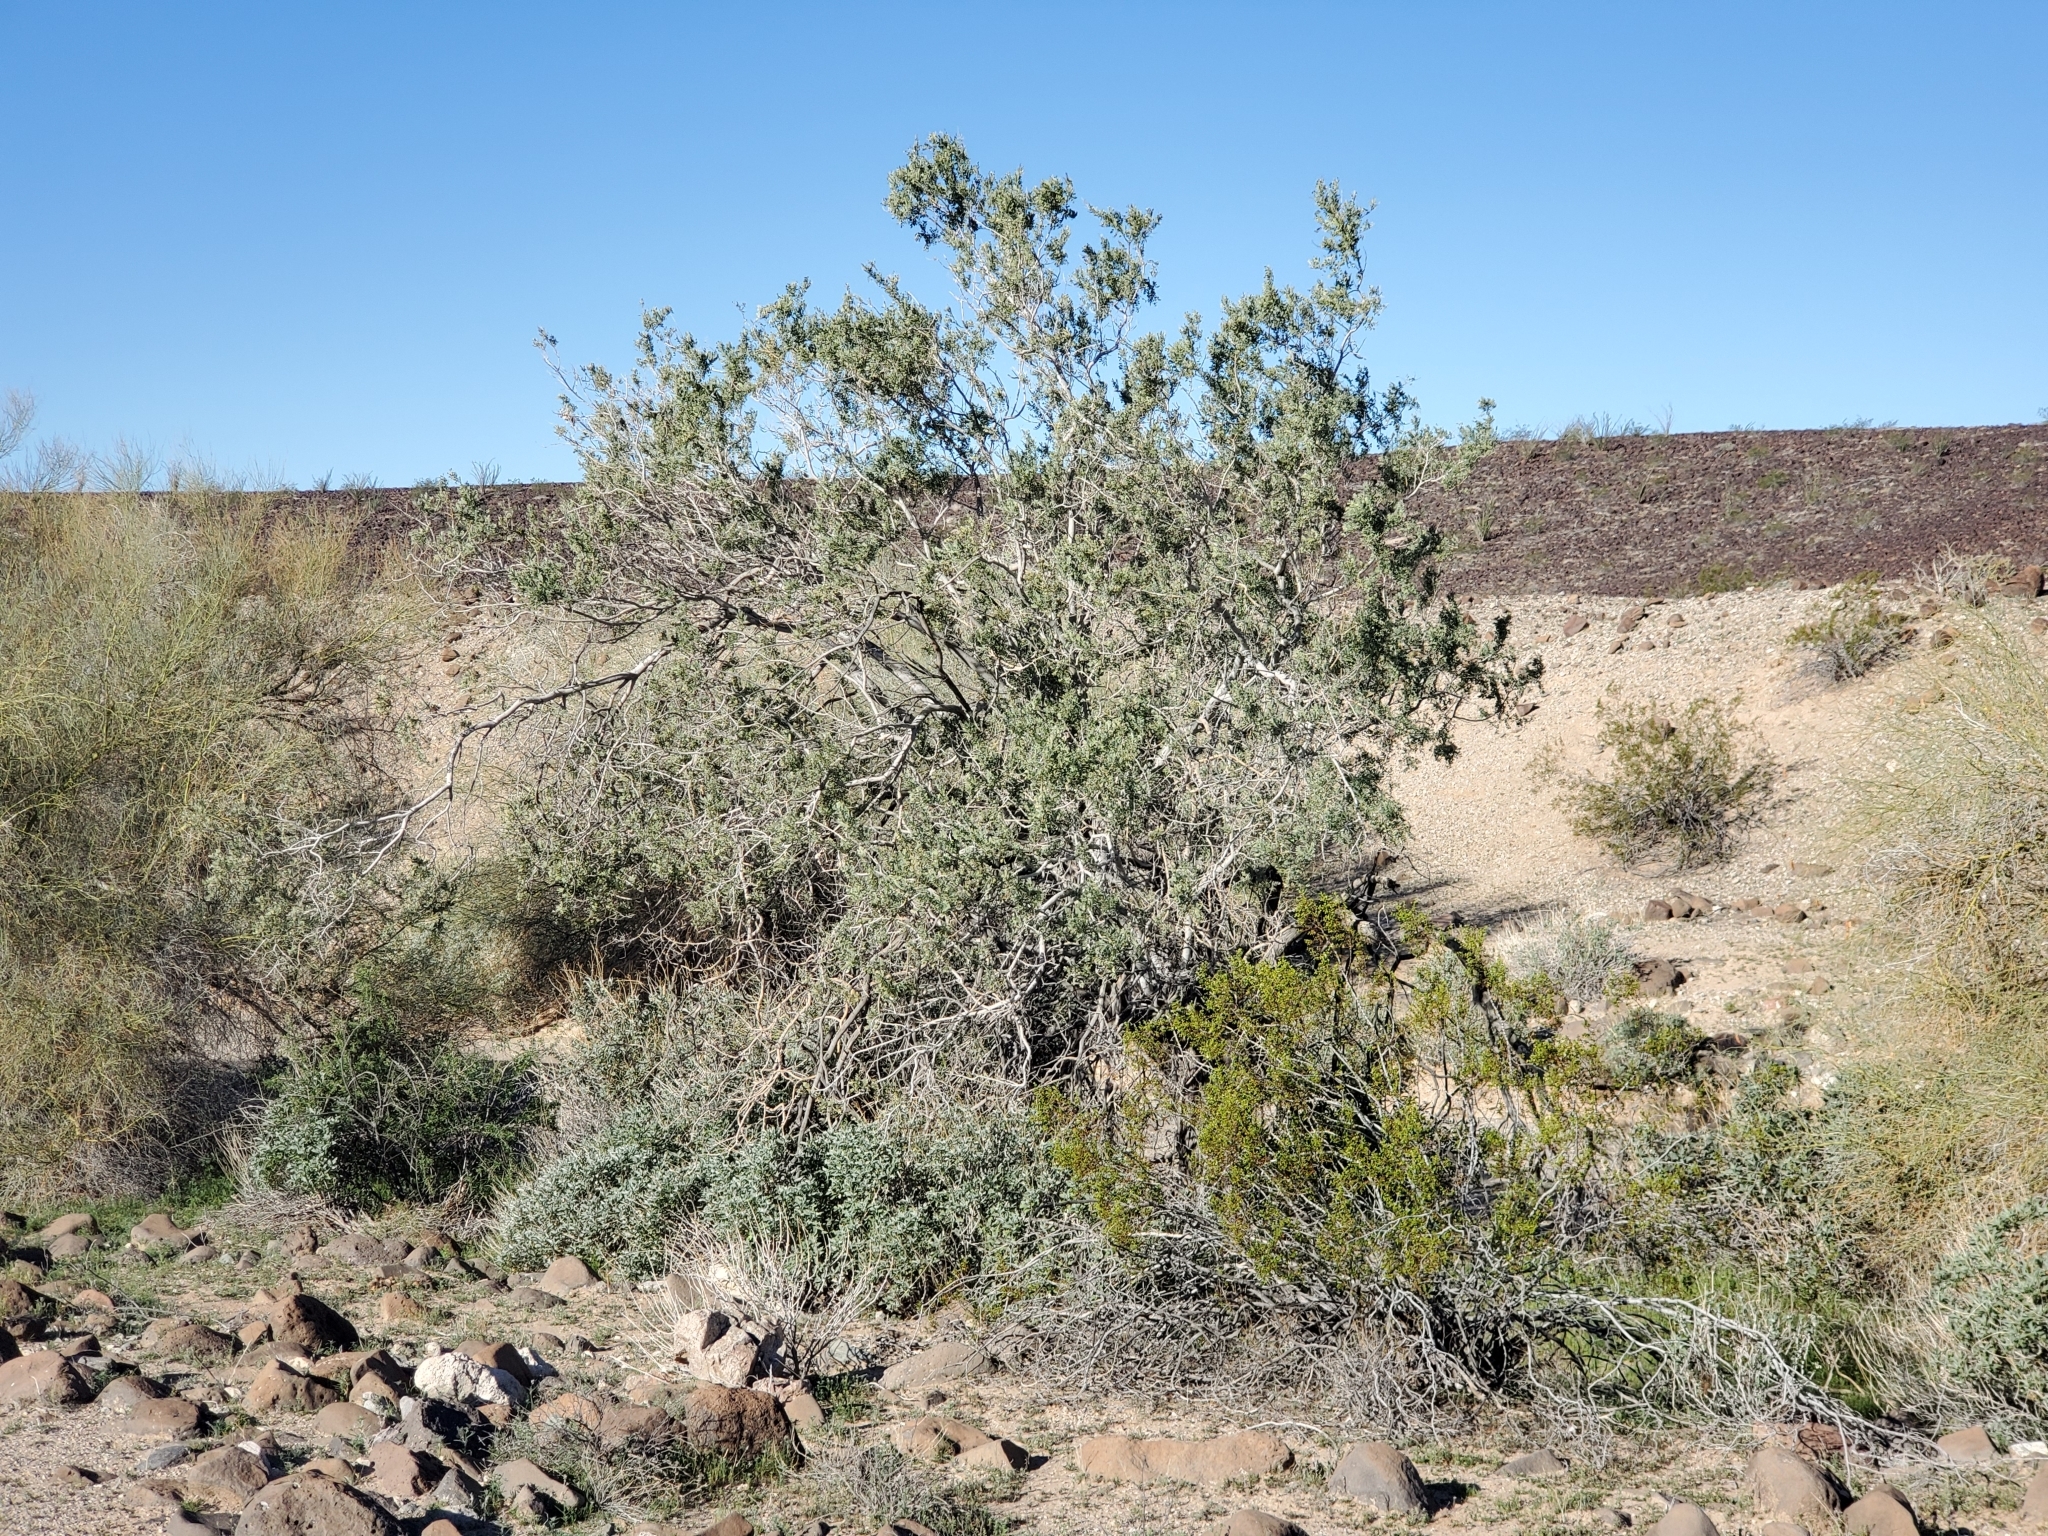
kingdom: Plantae
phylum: Tracheophyta
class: Magnoliopsida
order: Fabales
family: Fabaceae
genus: Olneya
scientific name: Olneya tesota
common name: Desert ironwood
